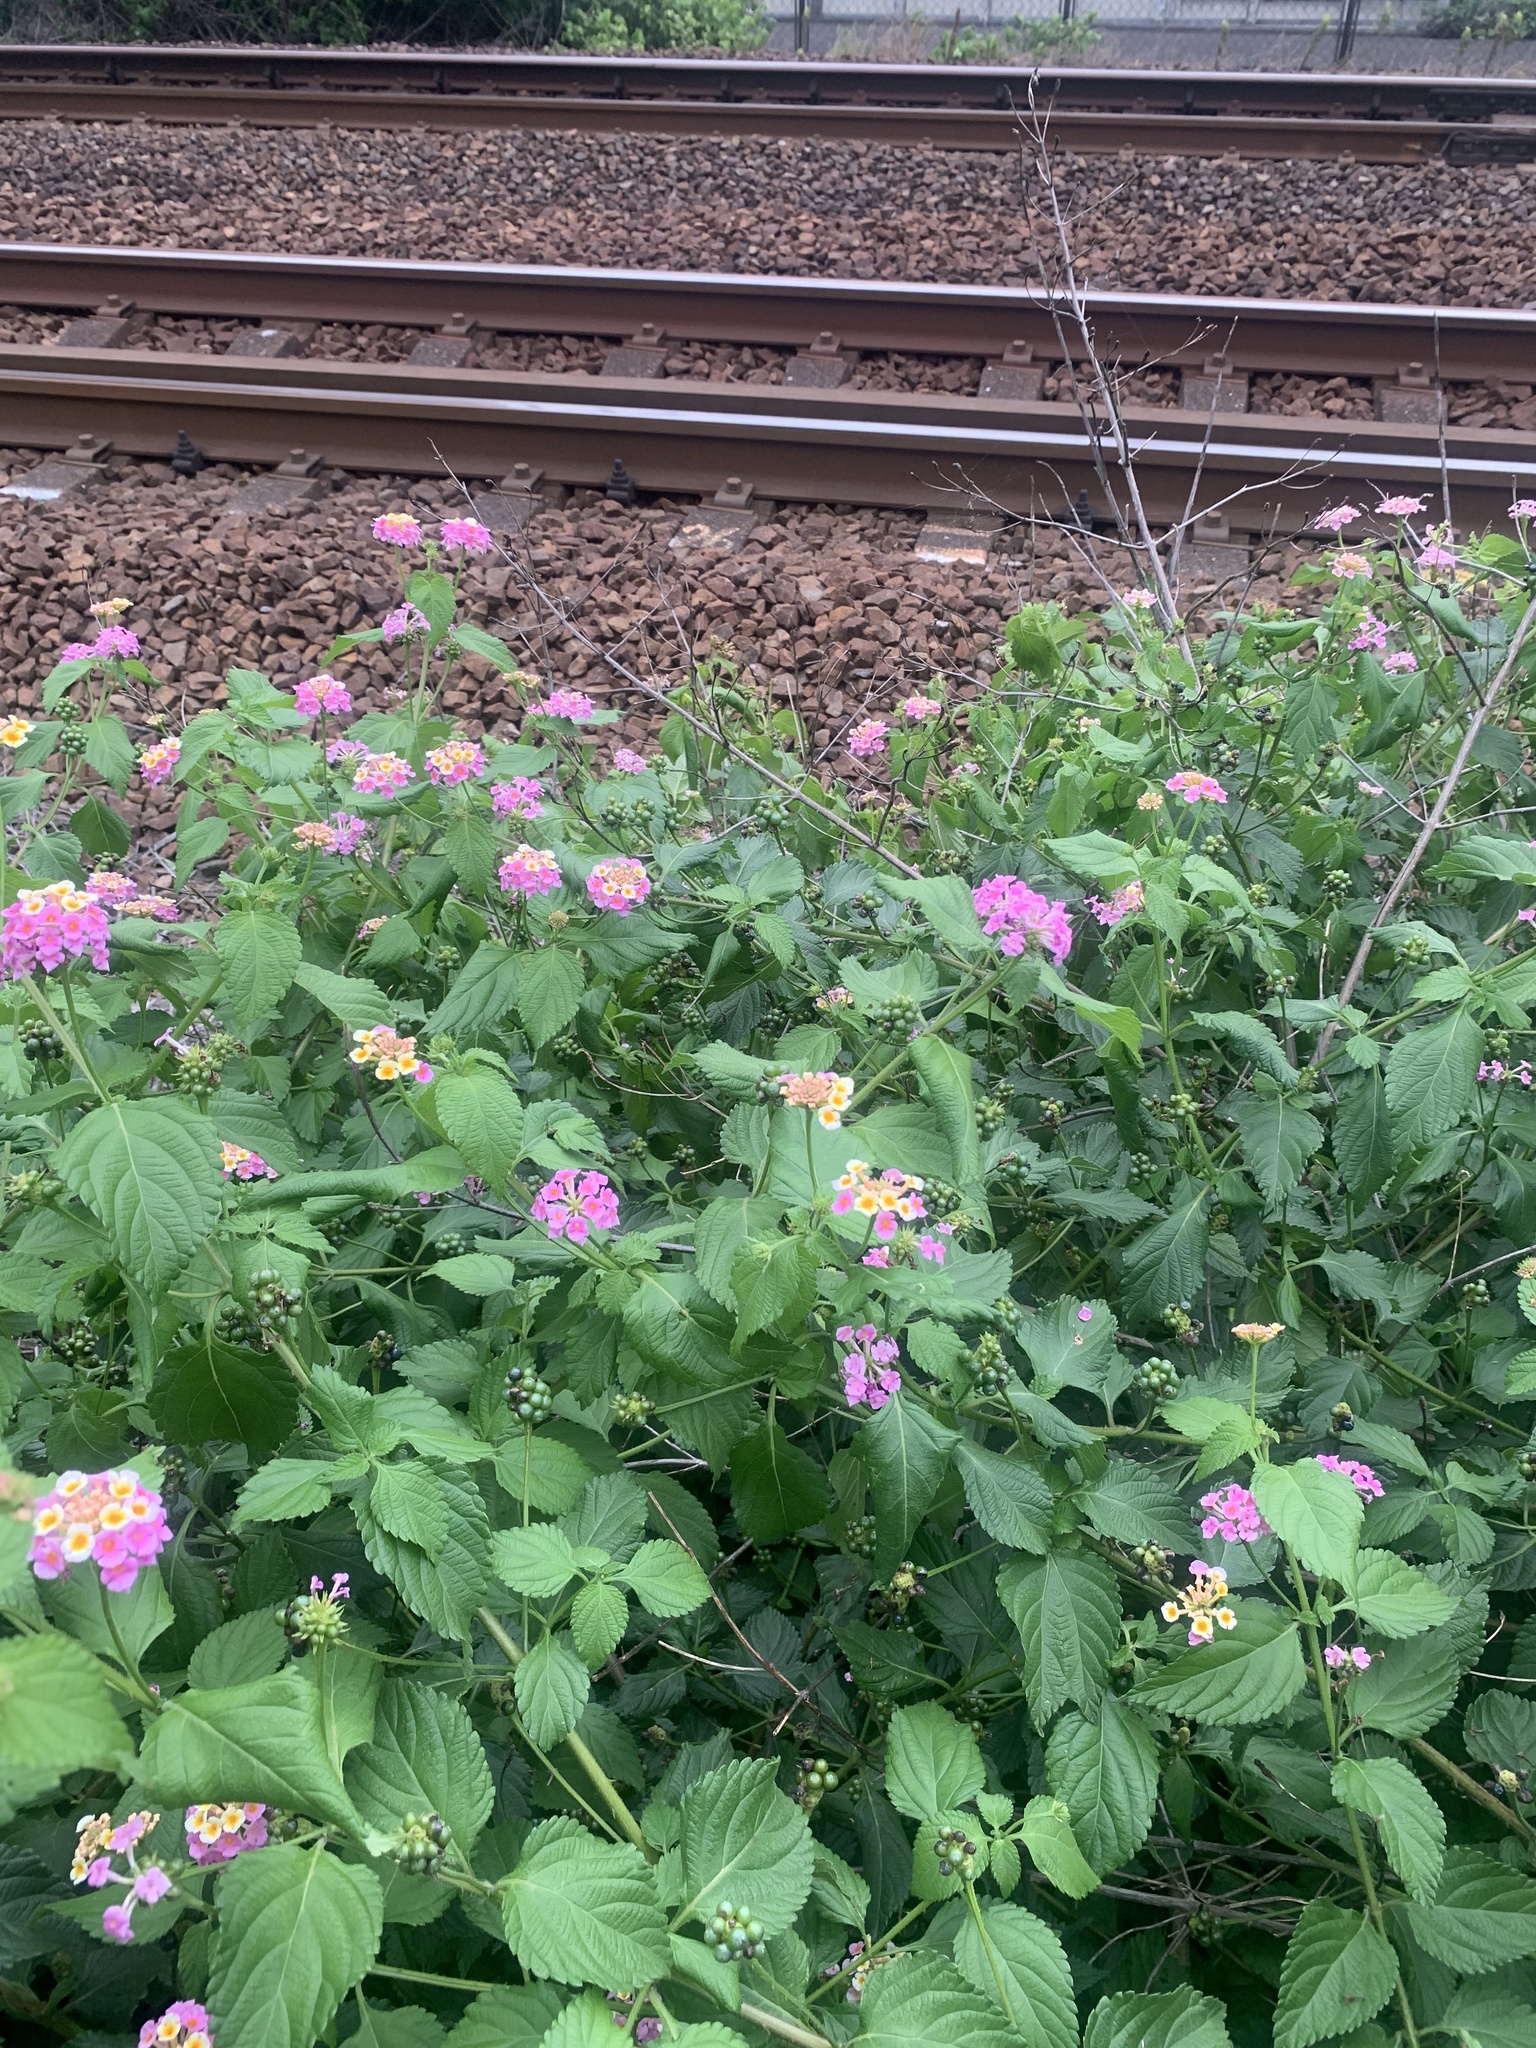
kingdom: Plantae
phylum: Tracheophyta
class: Magnoliopsida
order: Lamiales
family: Verbenaceae
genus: Lantana
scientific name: Lantana camara
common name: Lantana
